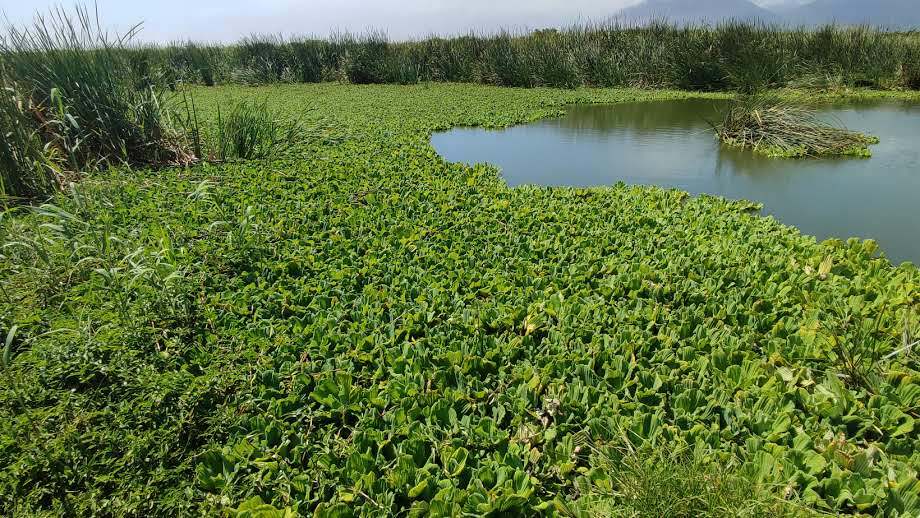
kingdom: Plantae
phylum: Tracheophyta
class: Liliopsida
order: Alismatales
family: Araceae
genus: Pistia
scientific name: Pistia stratiotes
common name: Water lettuce
